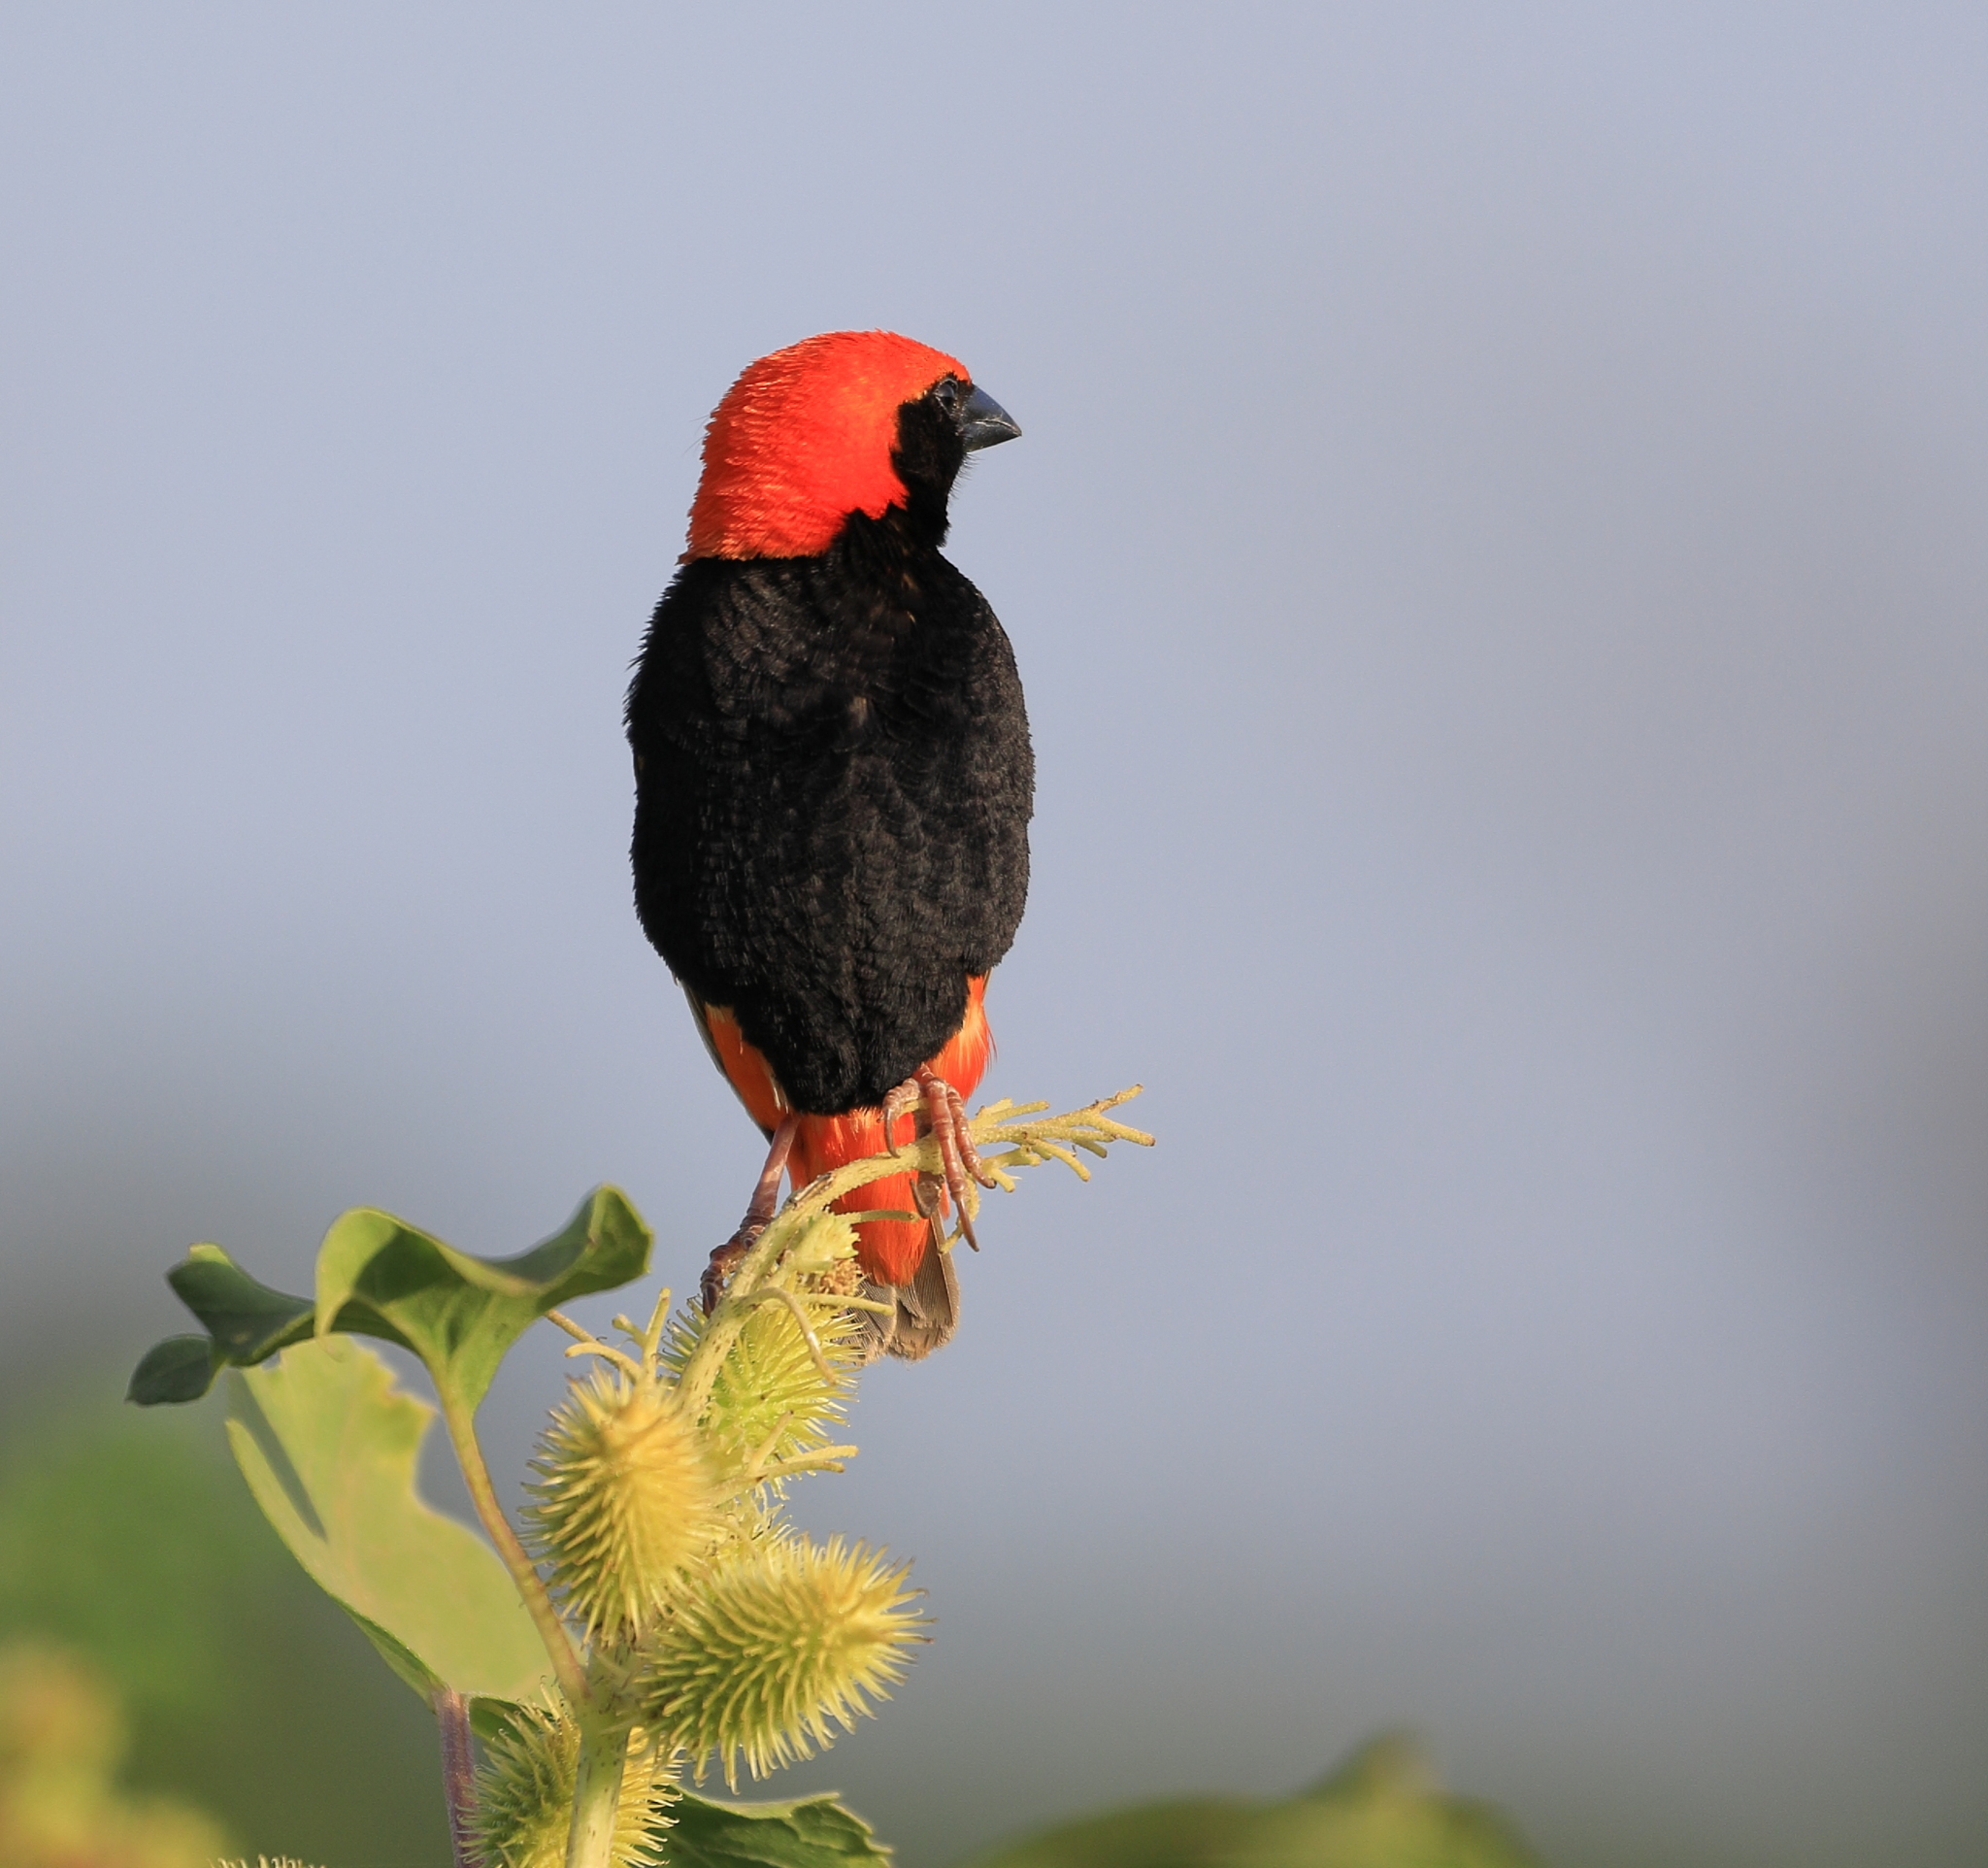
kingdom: Animalia
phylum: Chordata
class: Aves
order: Passeriformes
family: Ploceidae
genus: Euplectes
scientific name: Euplectes nigroventris
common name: Zanzibar red bishop
